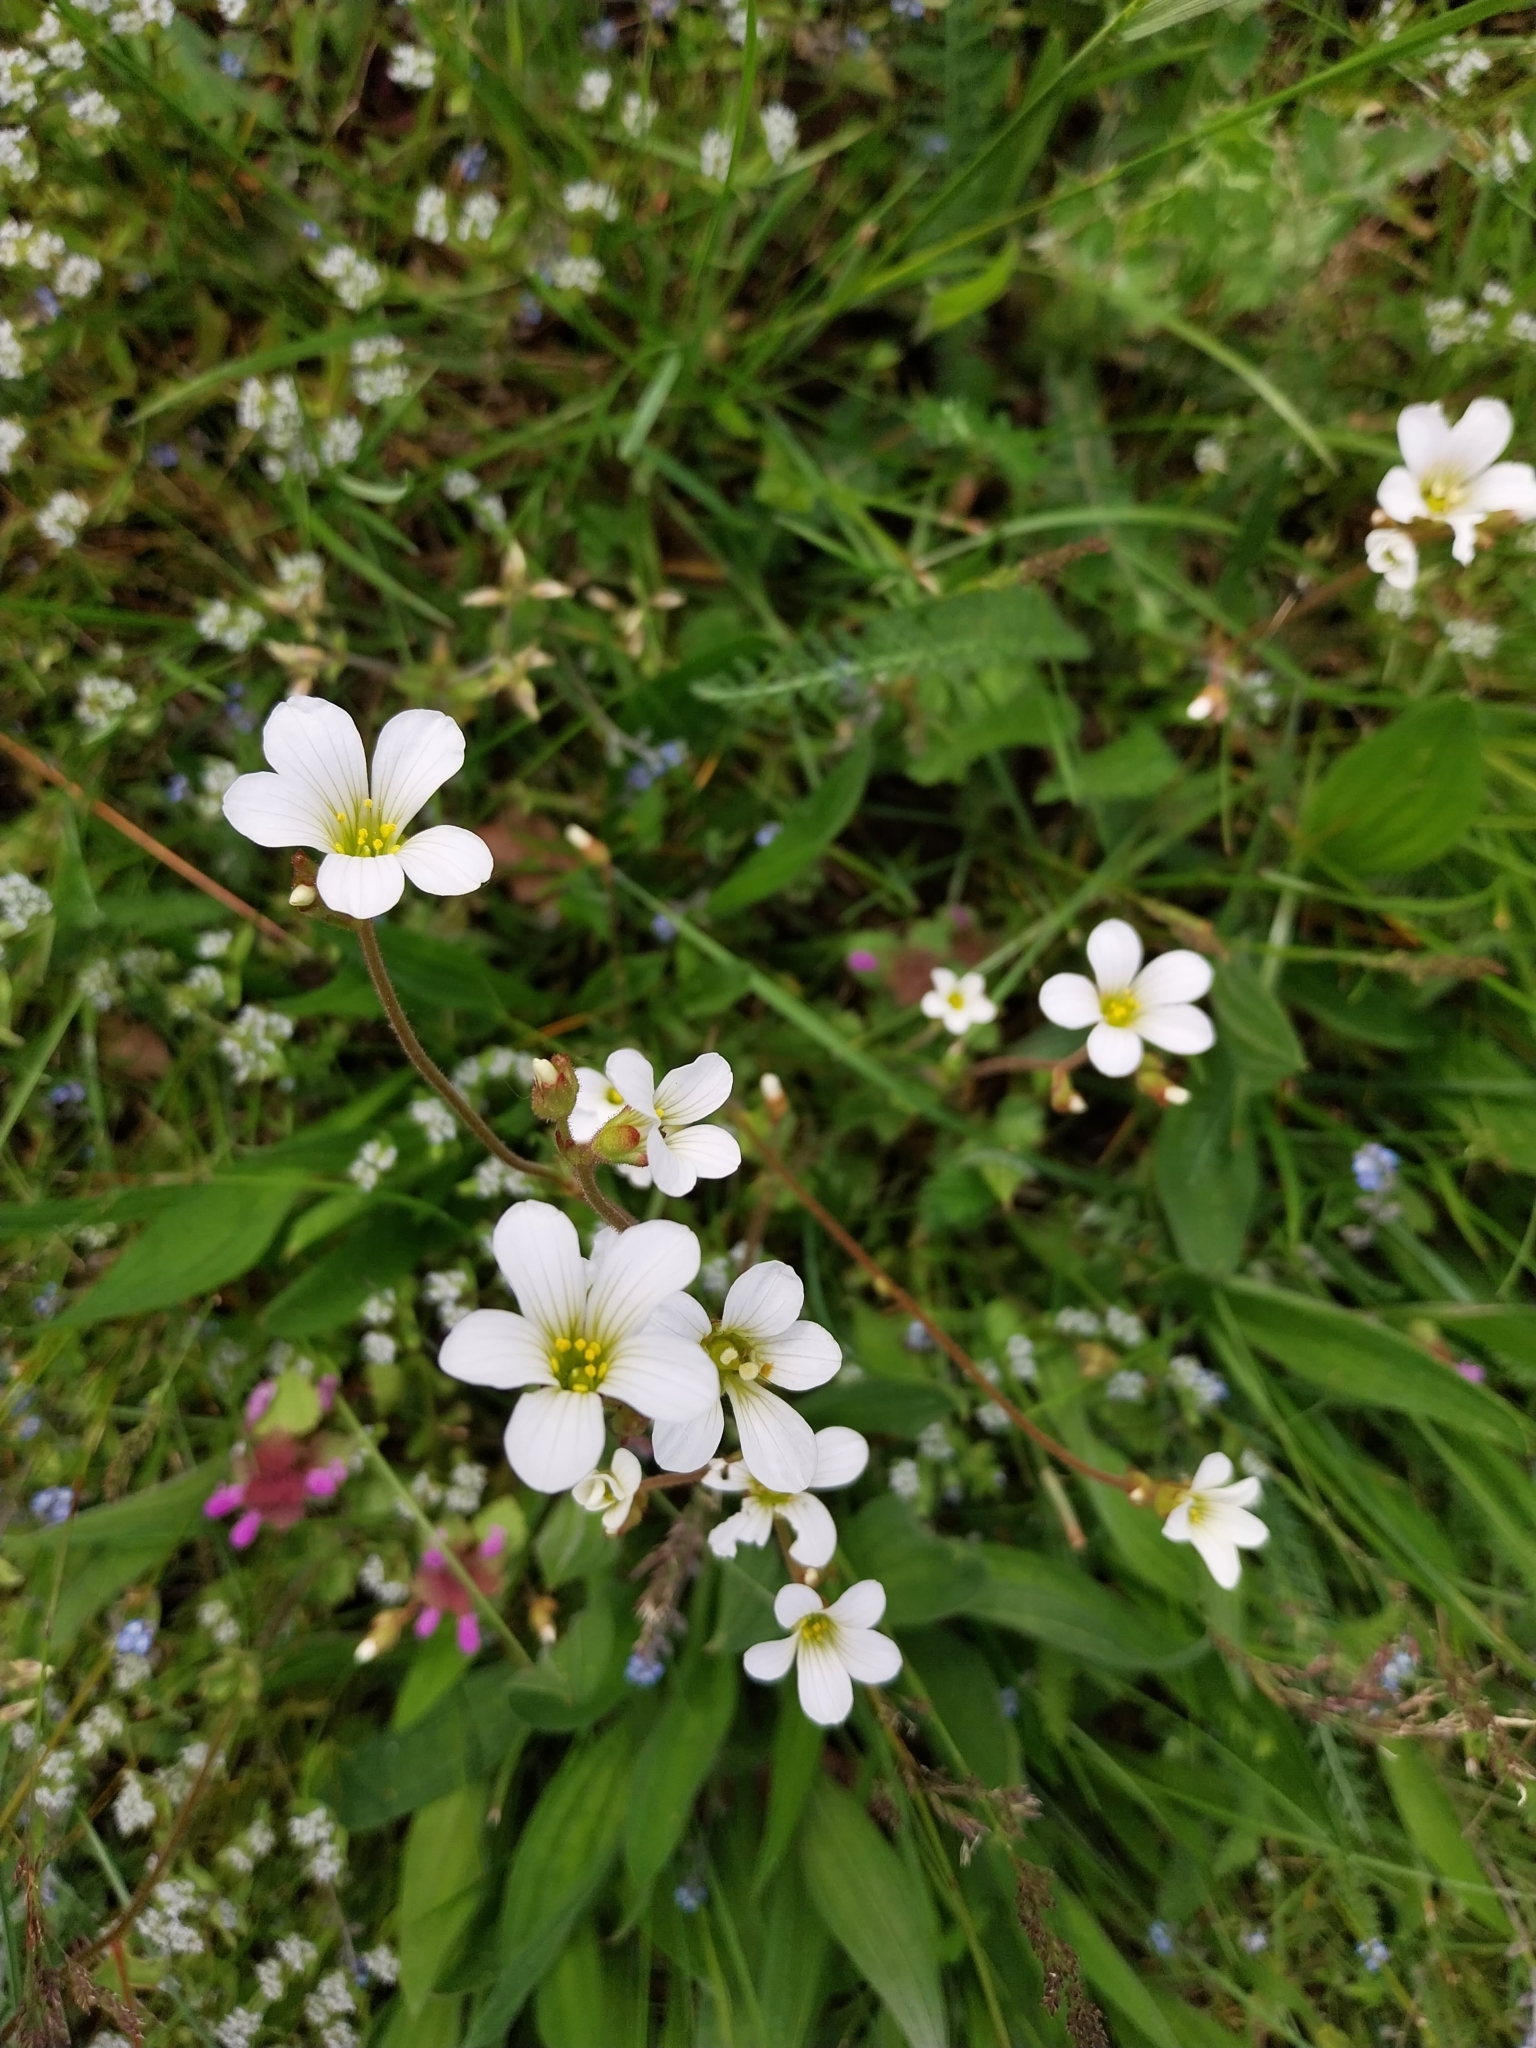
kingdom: Plantae
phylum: Tracheophyta
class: Magnoliopsida
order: Saxifragales
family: Saxifragaceae
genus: Saxifraga
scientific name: Saxifraga granulata
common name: Meadow saxifrage
